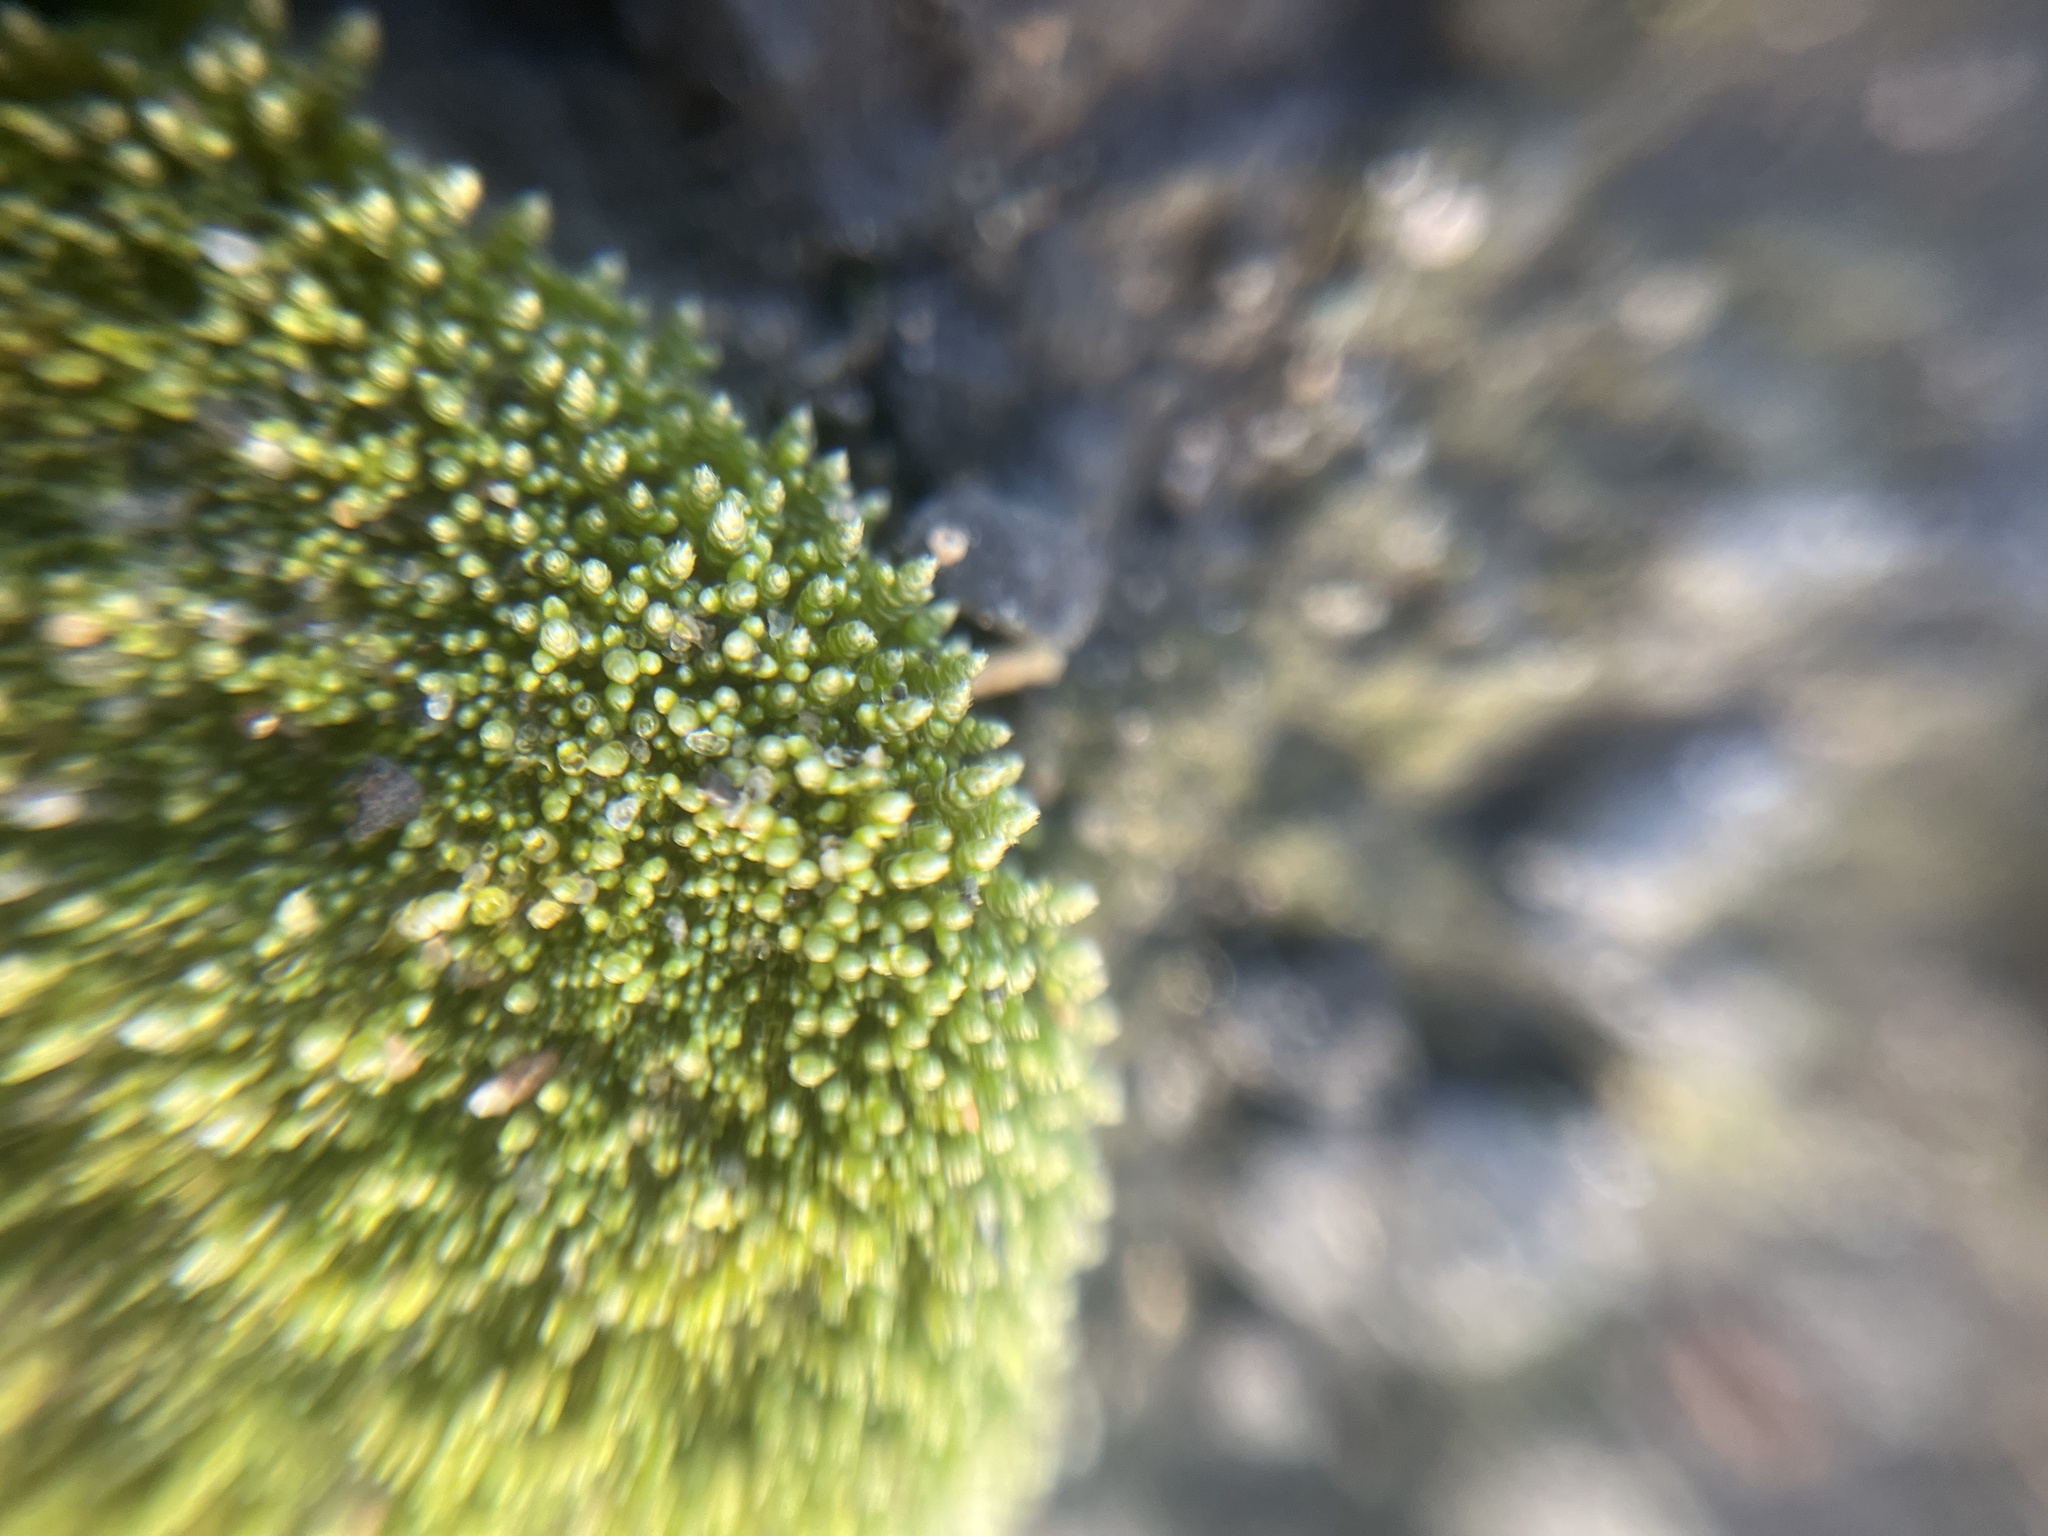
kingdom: Plantae
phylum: Bryophyta
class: Bryopsida
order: Bryales
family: Bryaceae
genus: Bryum
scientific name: Bryum argenteum
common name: Silver-moss
